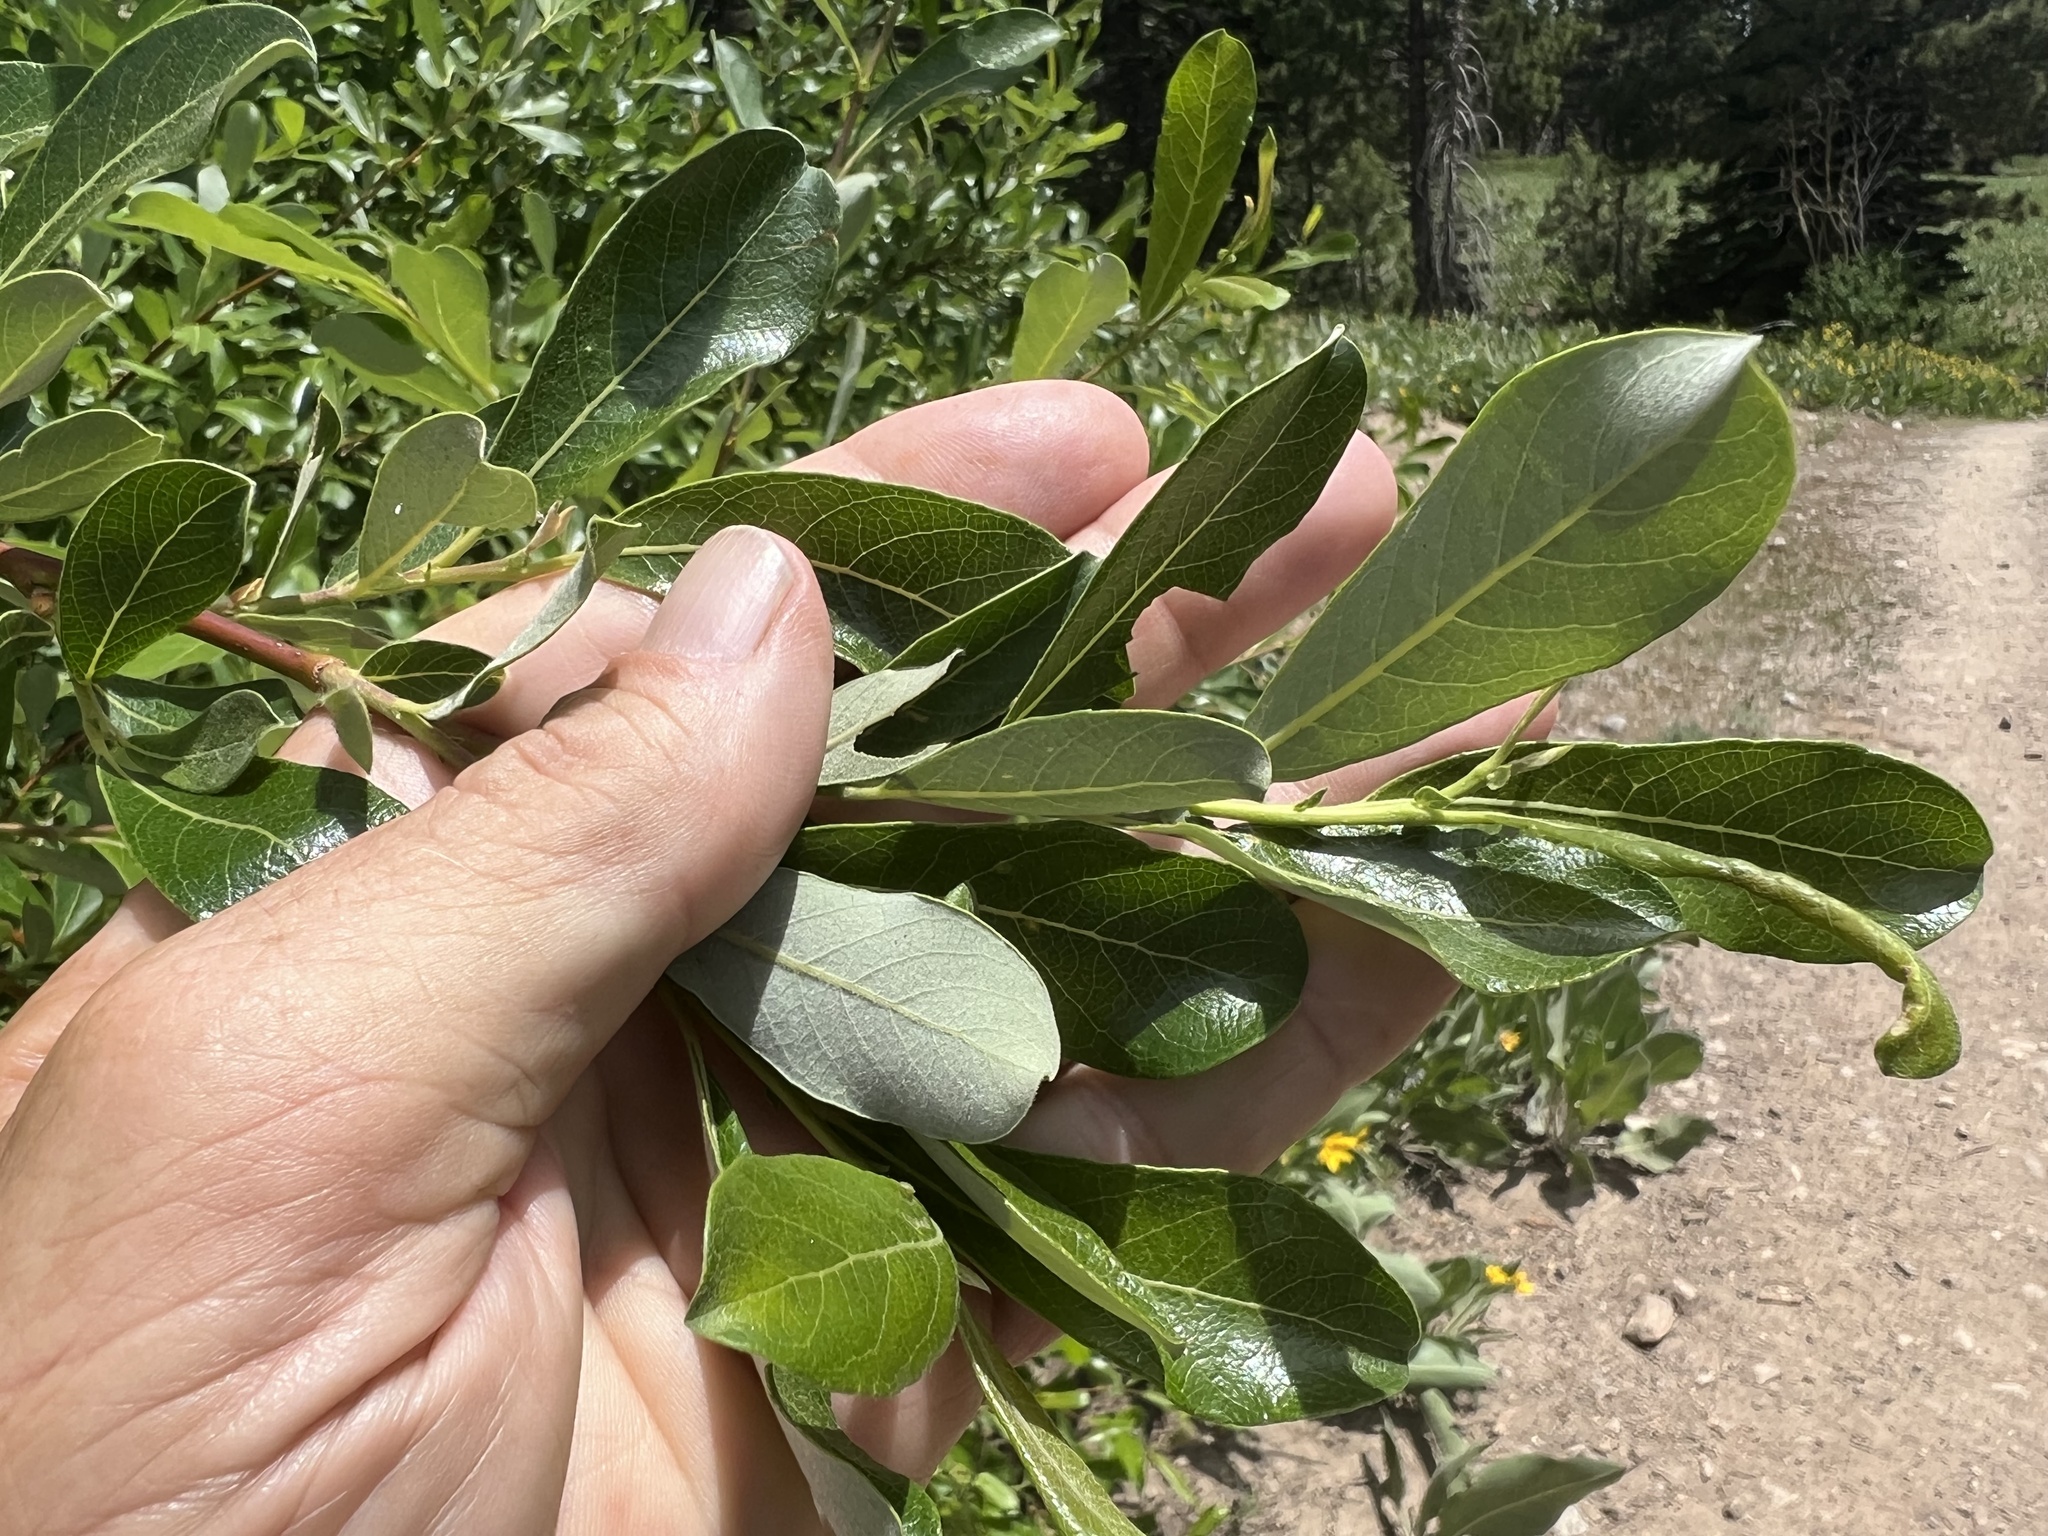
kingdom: Plantae
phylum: Tracheophyta
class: Magnoliopsida
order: Malpighiales
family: Salicaceae
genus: Salix
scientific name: Salix scouleriana
